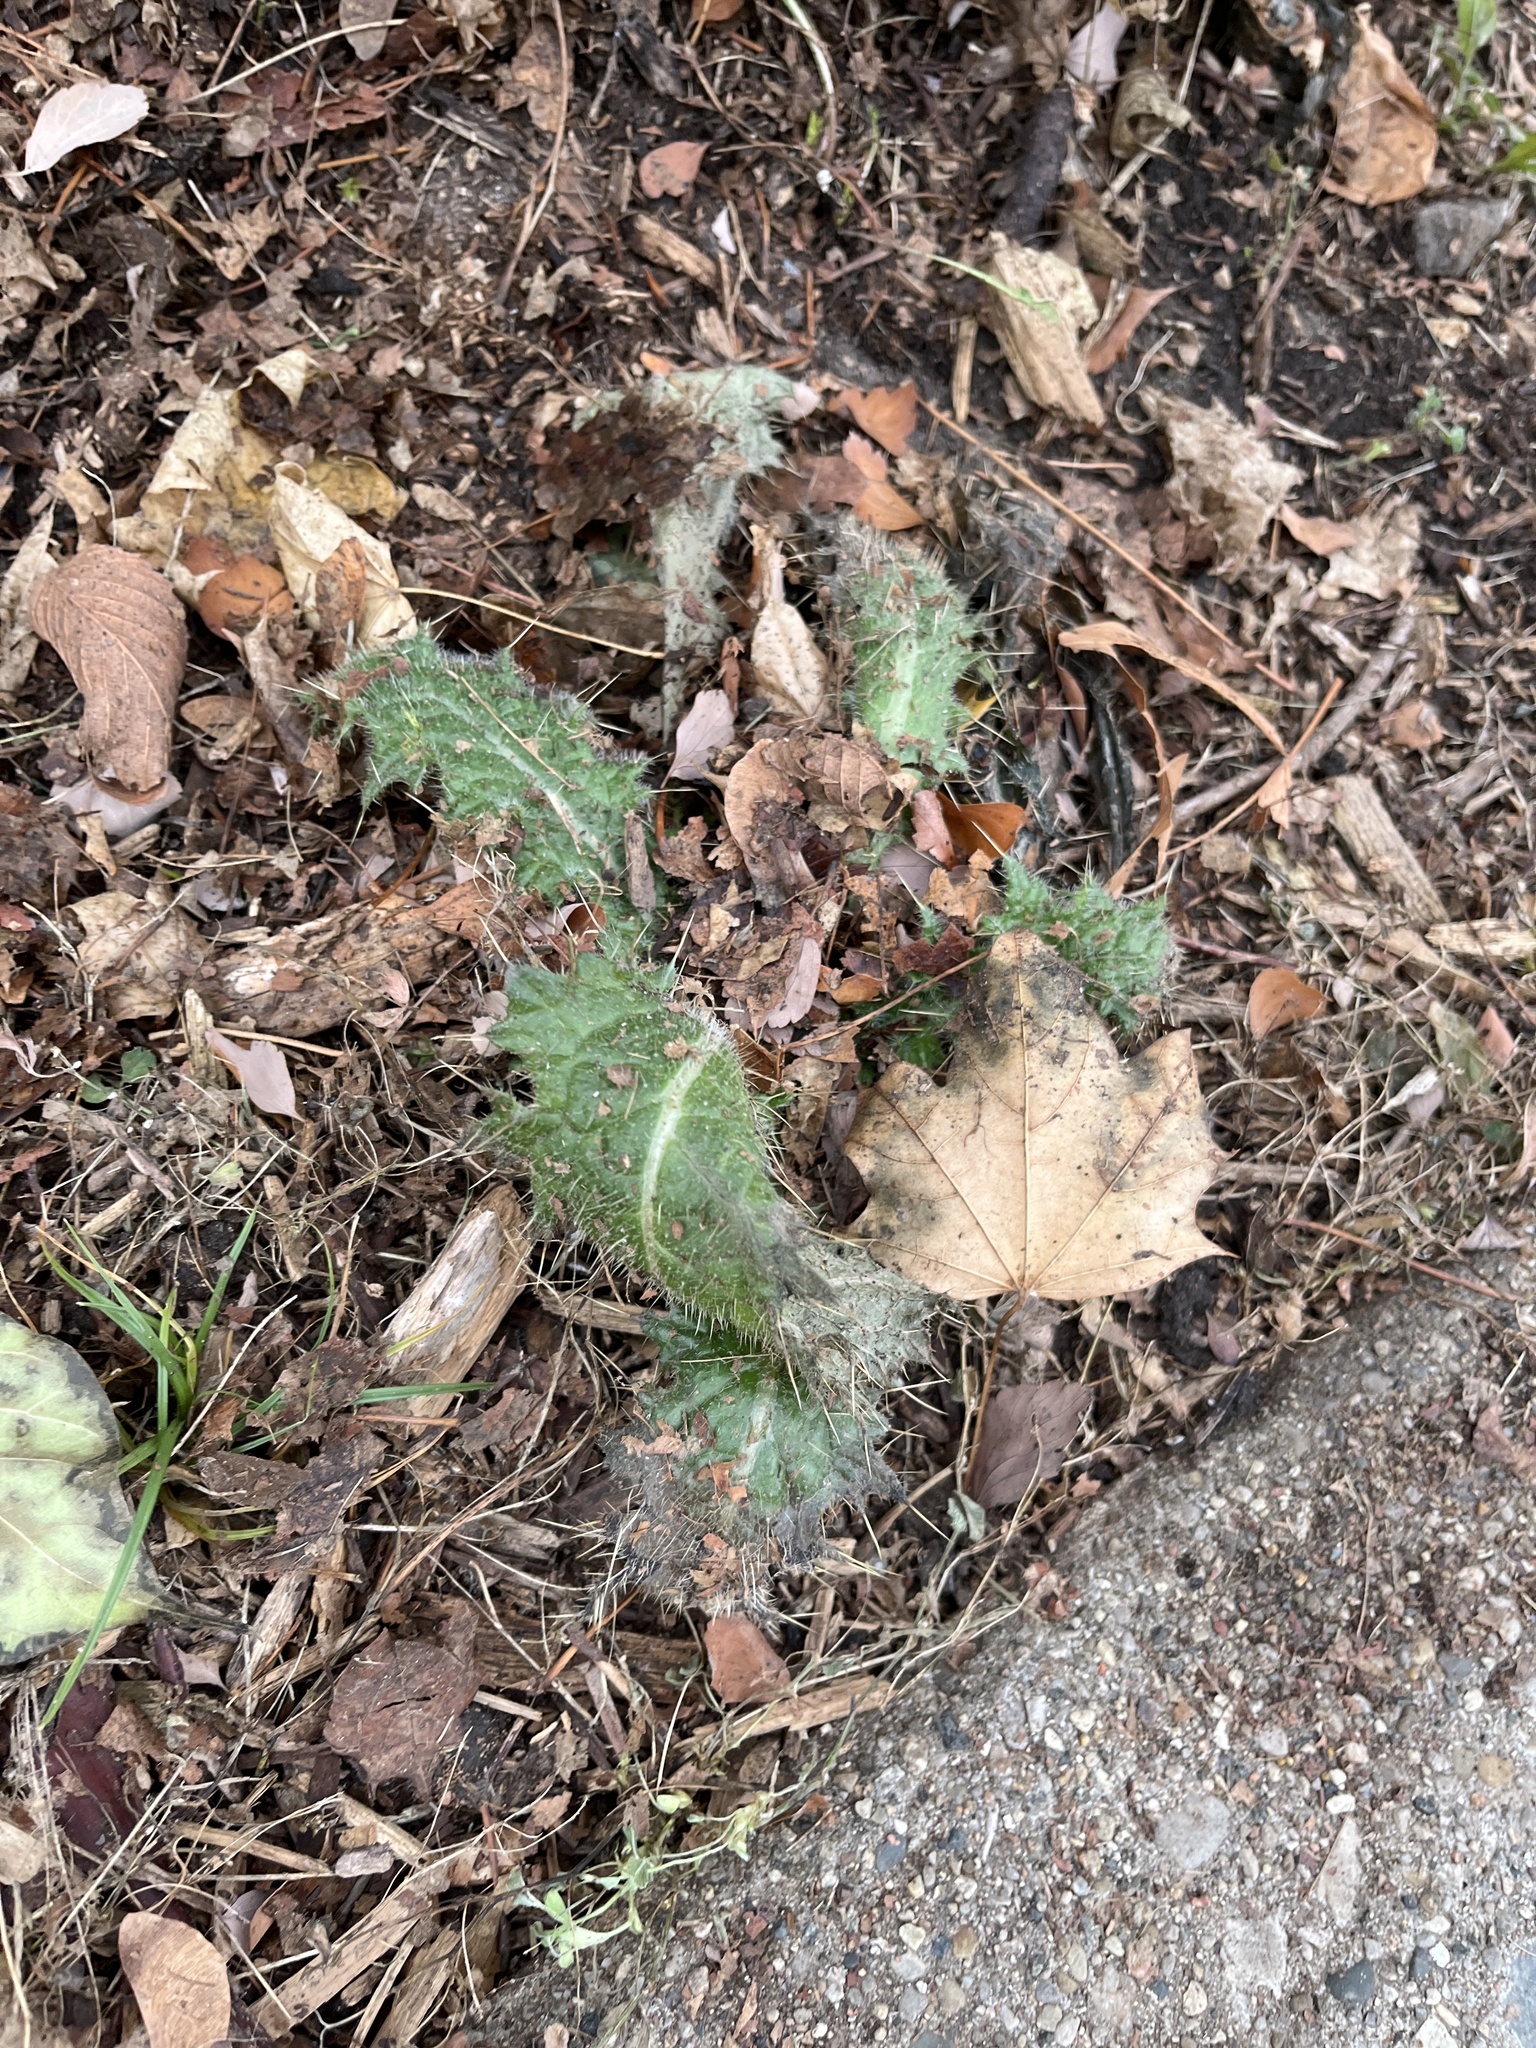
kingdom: Plantae
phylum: Tracheophyta
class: Magnoliopsida
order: Asterales
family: Asteraceae
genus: Cirsium
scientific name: Cirsium vulgare
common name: Bull thistle
